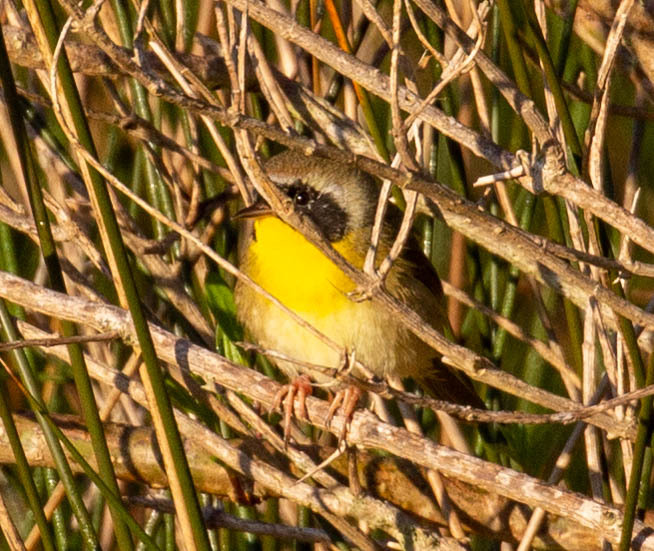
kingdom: Animalia
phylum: Chordata
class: Aves
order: Passeriformes
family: Parulidae
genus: Geothlypis
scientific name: Geothlypis trichas
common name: Common yellowthroat
